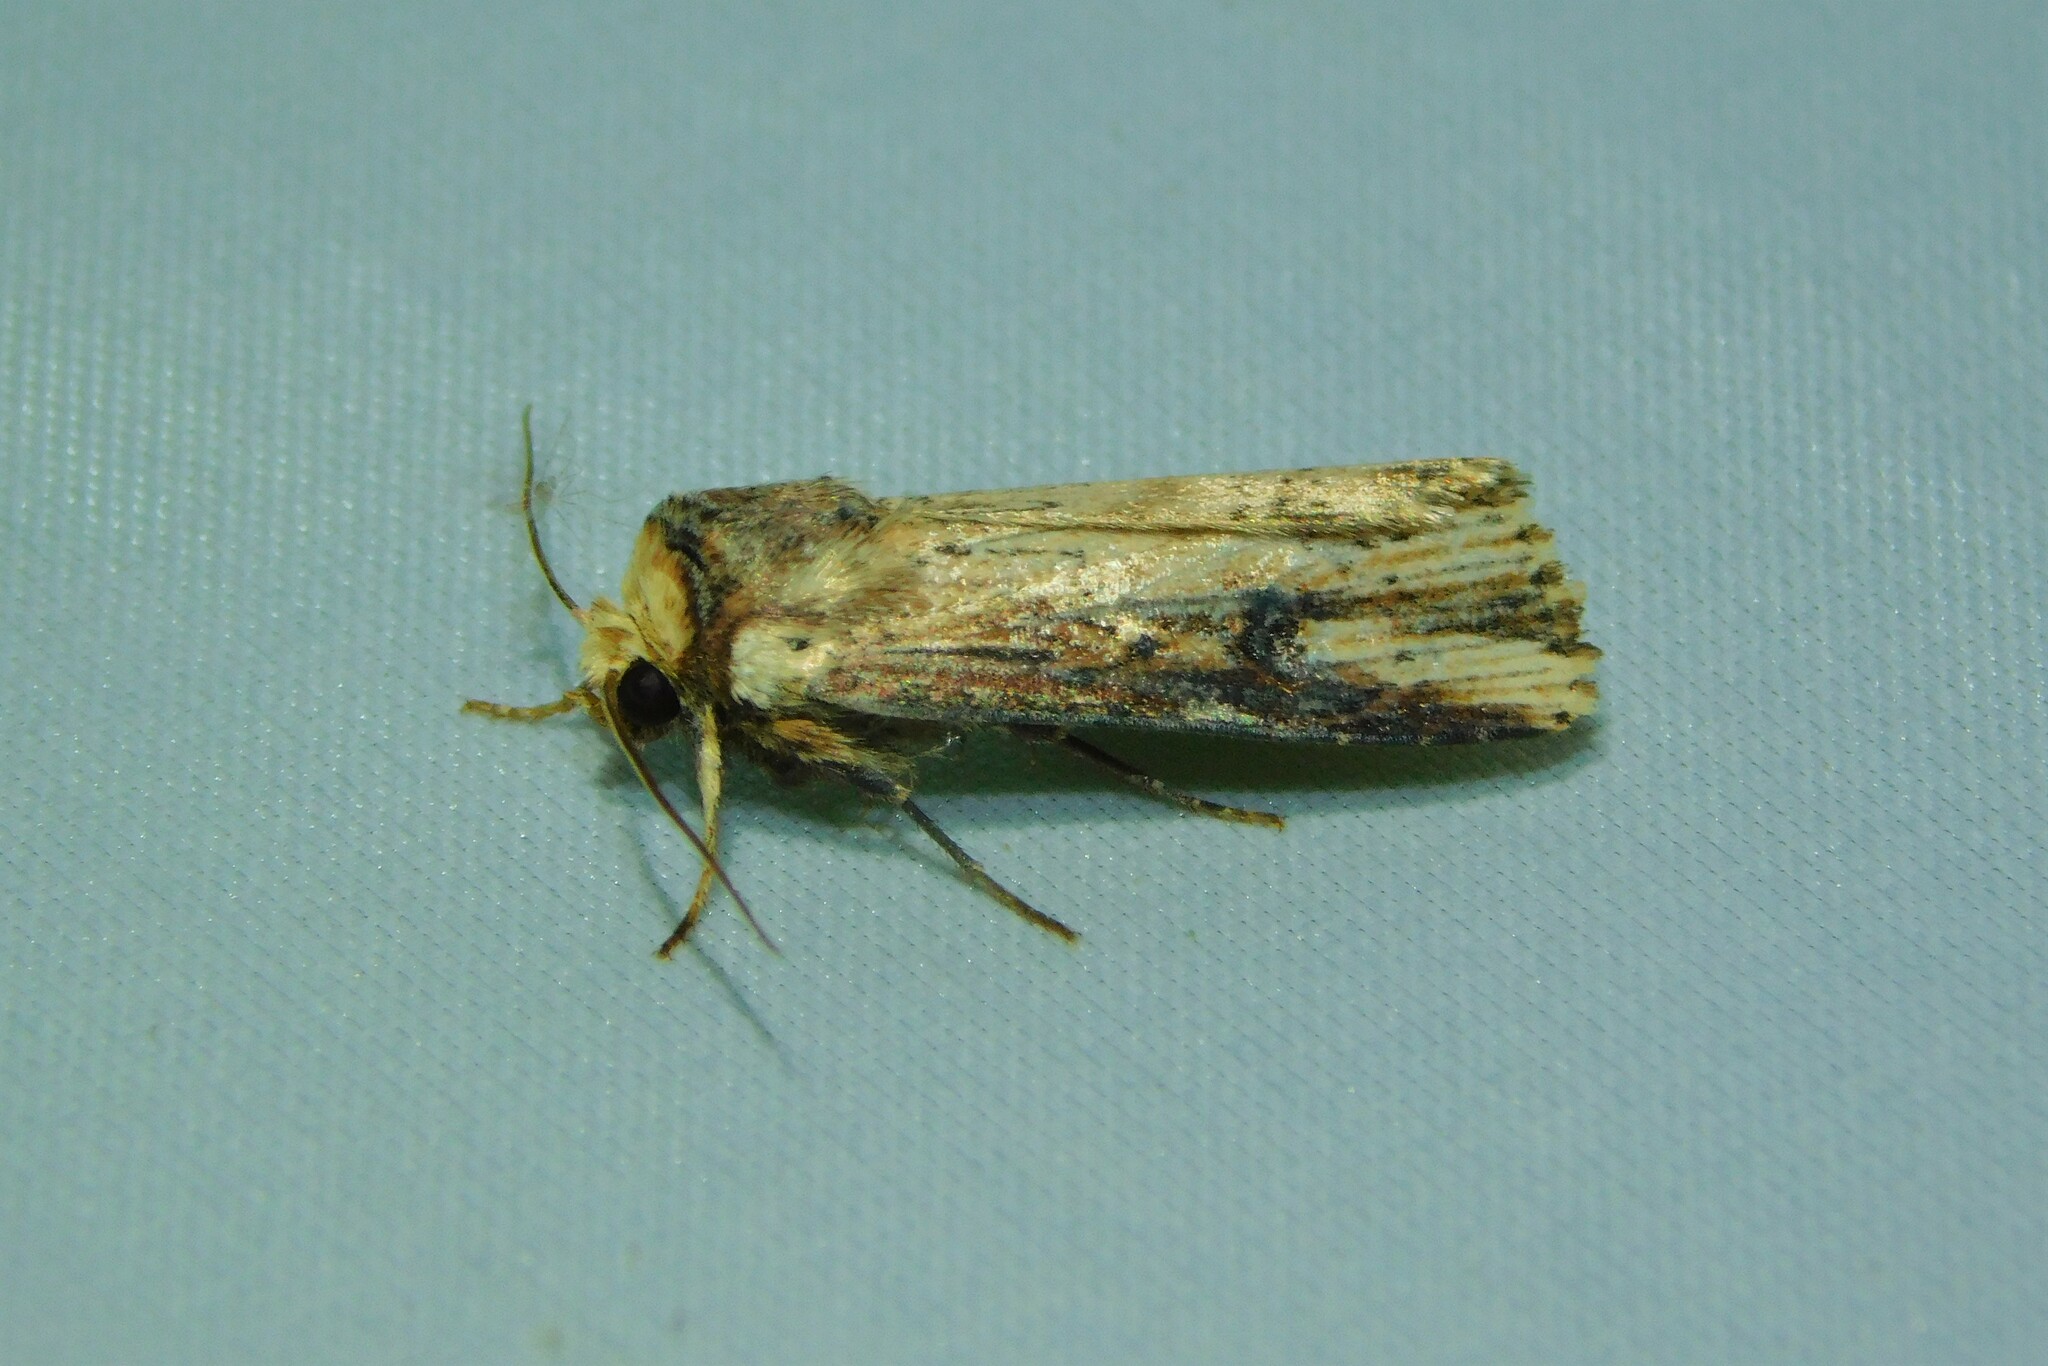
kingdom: Animalia
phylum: Arthropoda
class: Insecta
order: Lepidoptera
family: Noctuidae
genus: Axylia
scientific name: Axylia putris
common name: Flame
